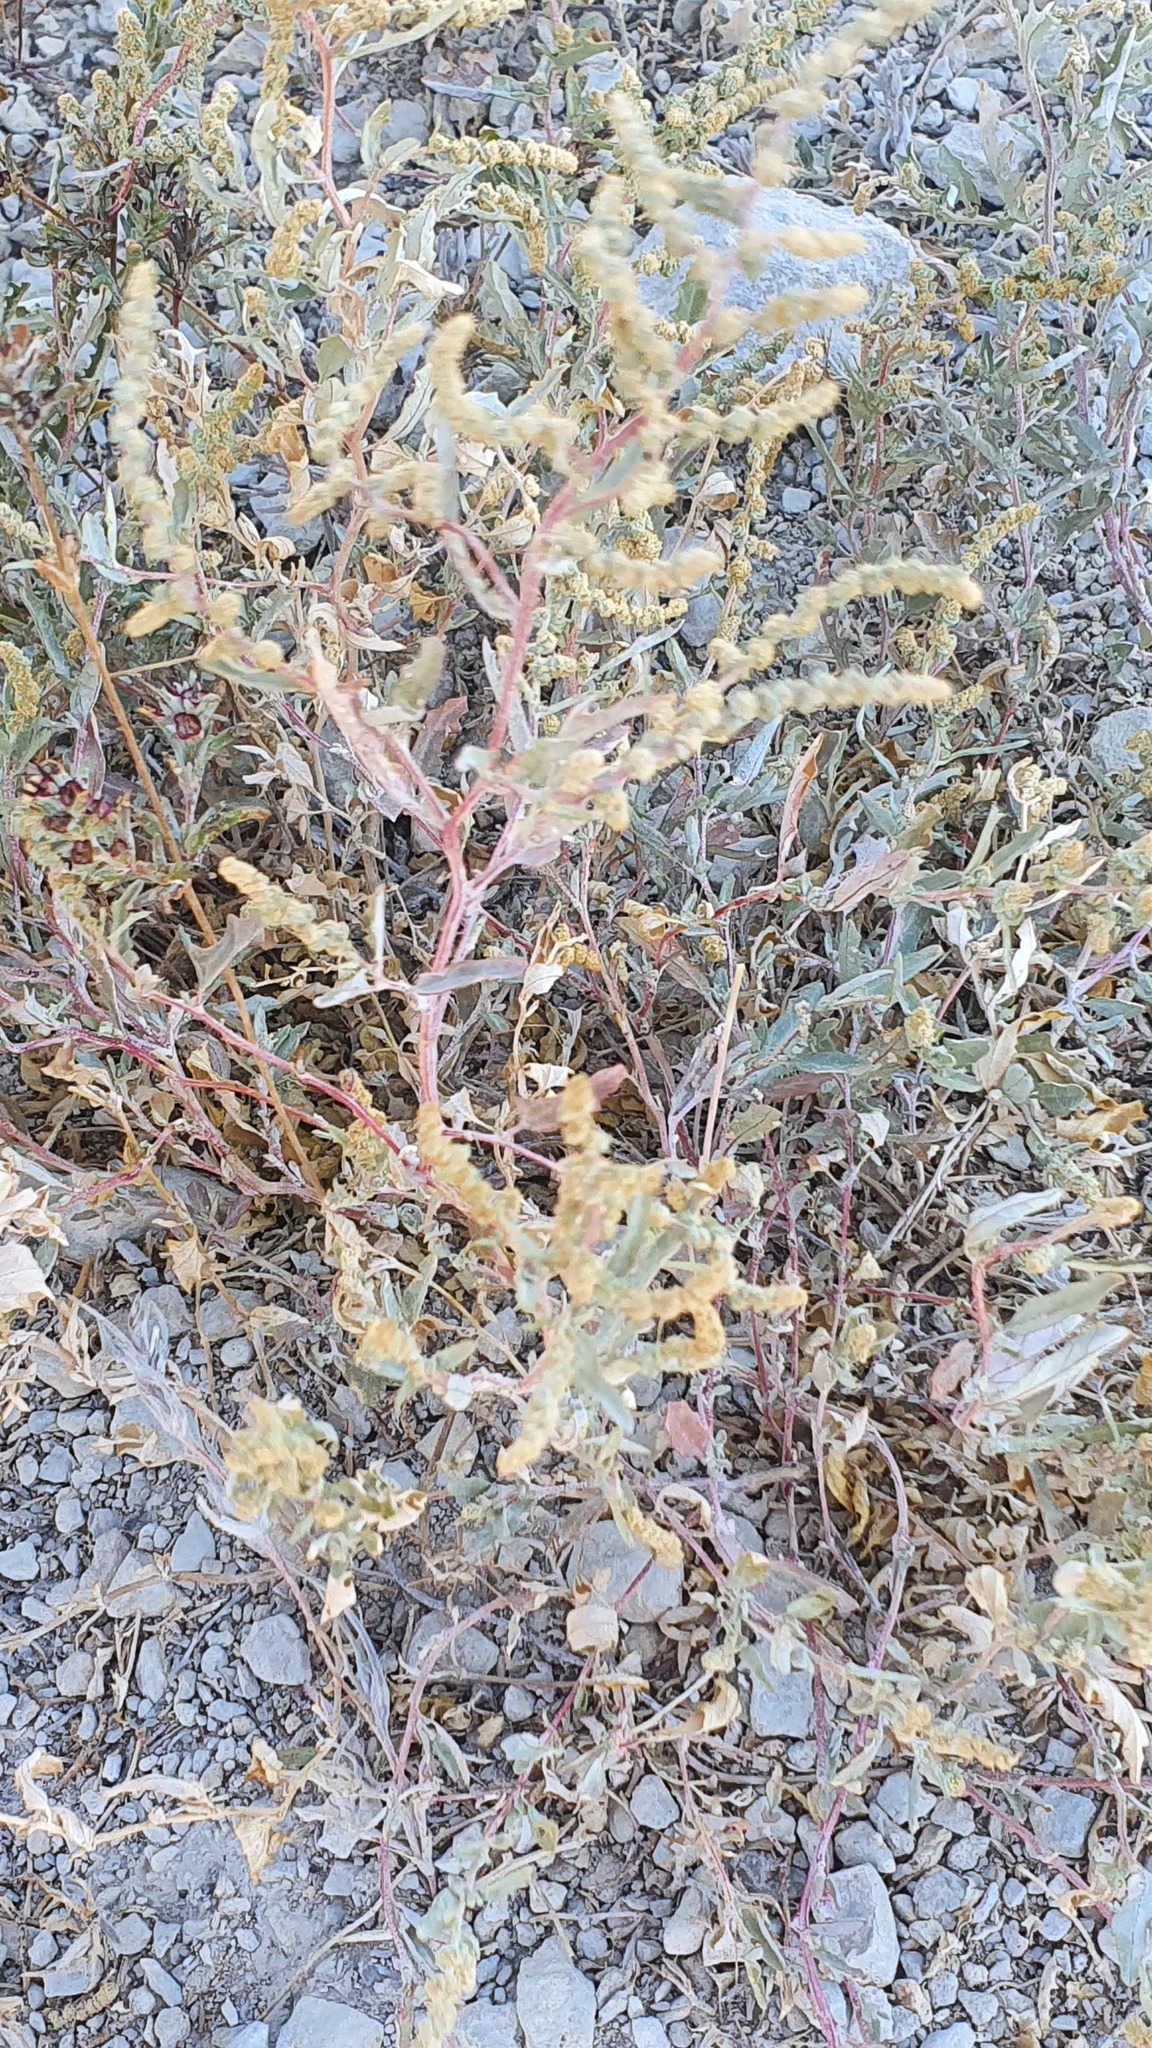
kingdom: Plantae
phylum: Tracheophyta
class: Magnoliopsida
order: Caryophyllales
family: Amaranthaceae
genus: Atriplex
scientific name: Atriplex tatarica
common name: Tatarian orache
